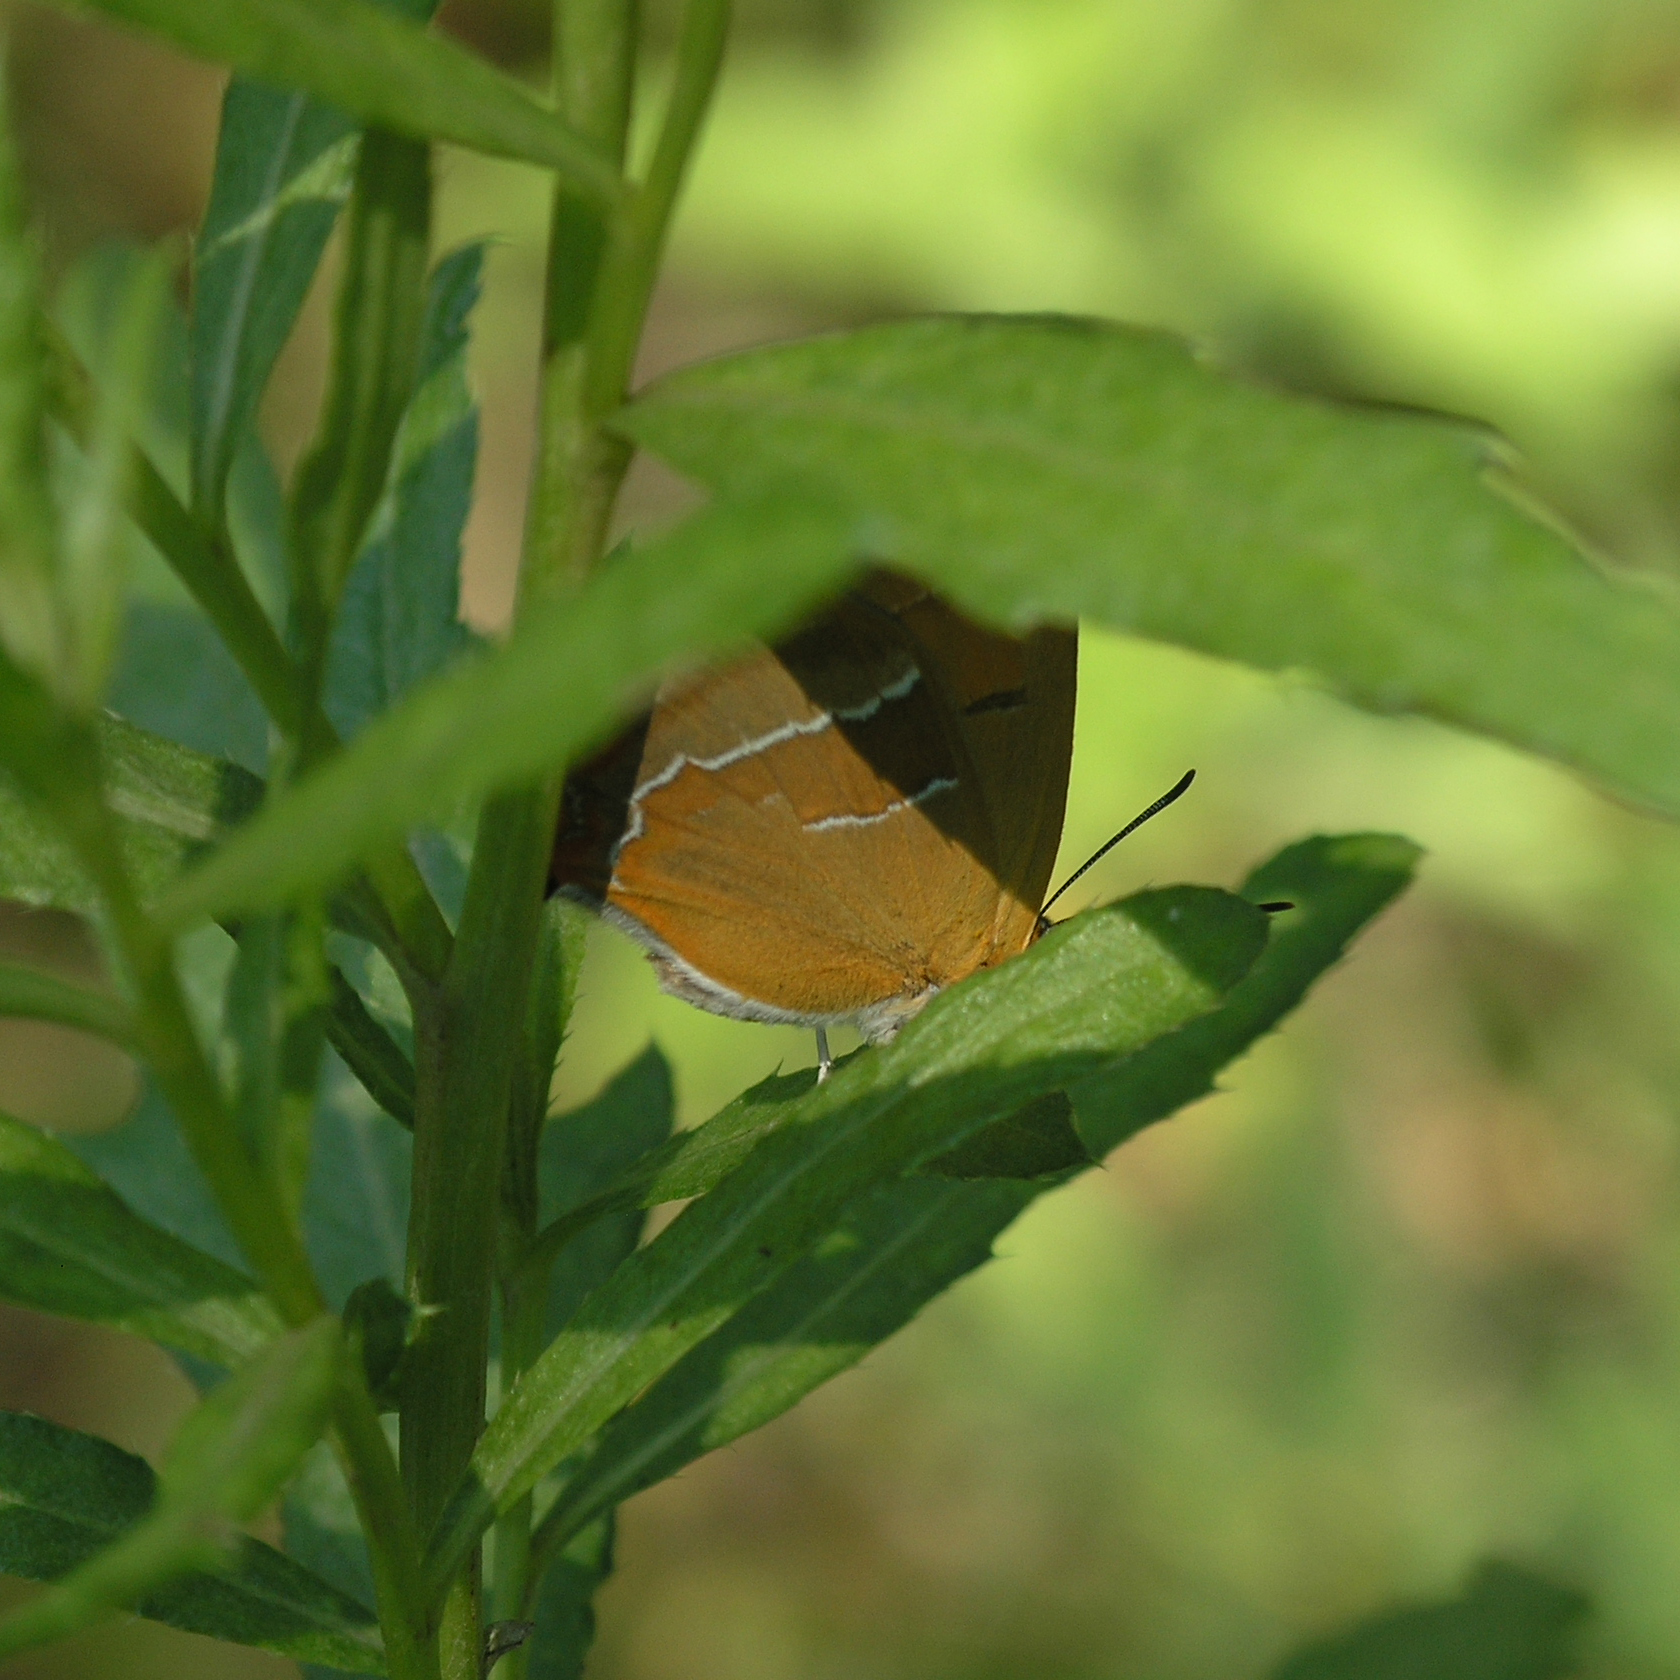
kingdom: Animalia
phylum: Arthropoda
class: Insecta
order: Lepidoptera
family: Lycaenidae
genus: Thecla
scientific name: Thecla betulae
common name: Brown hairstreak
